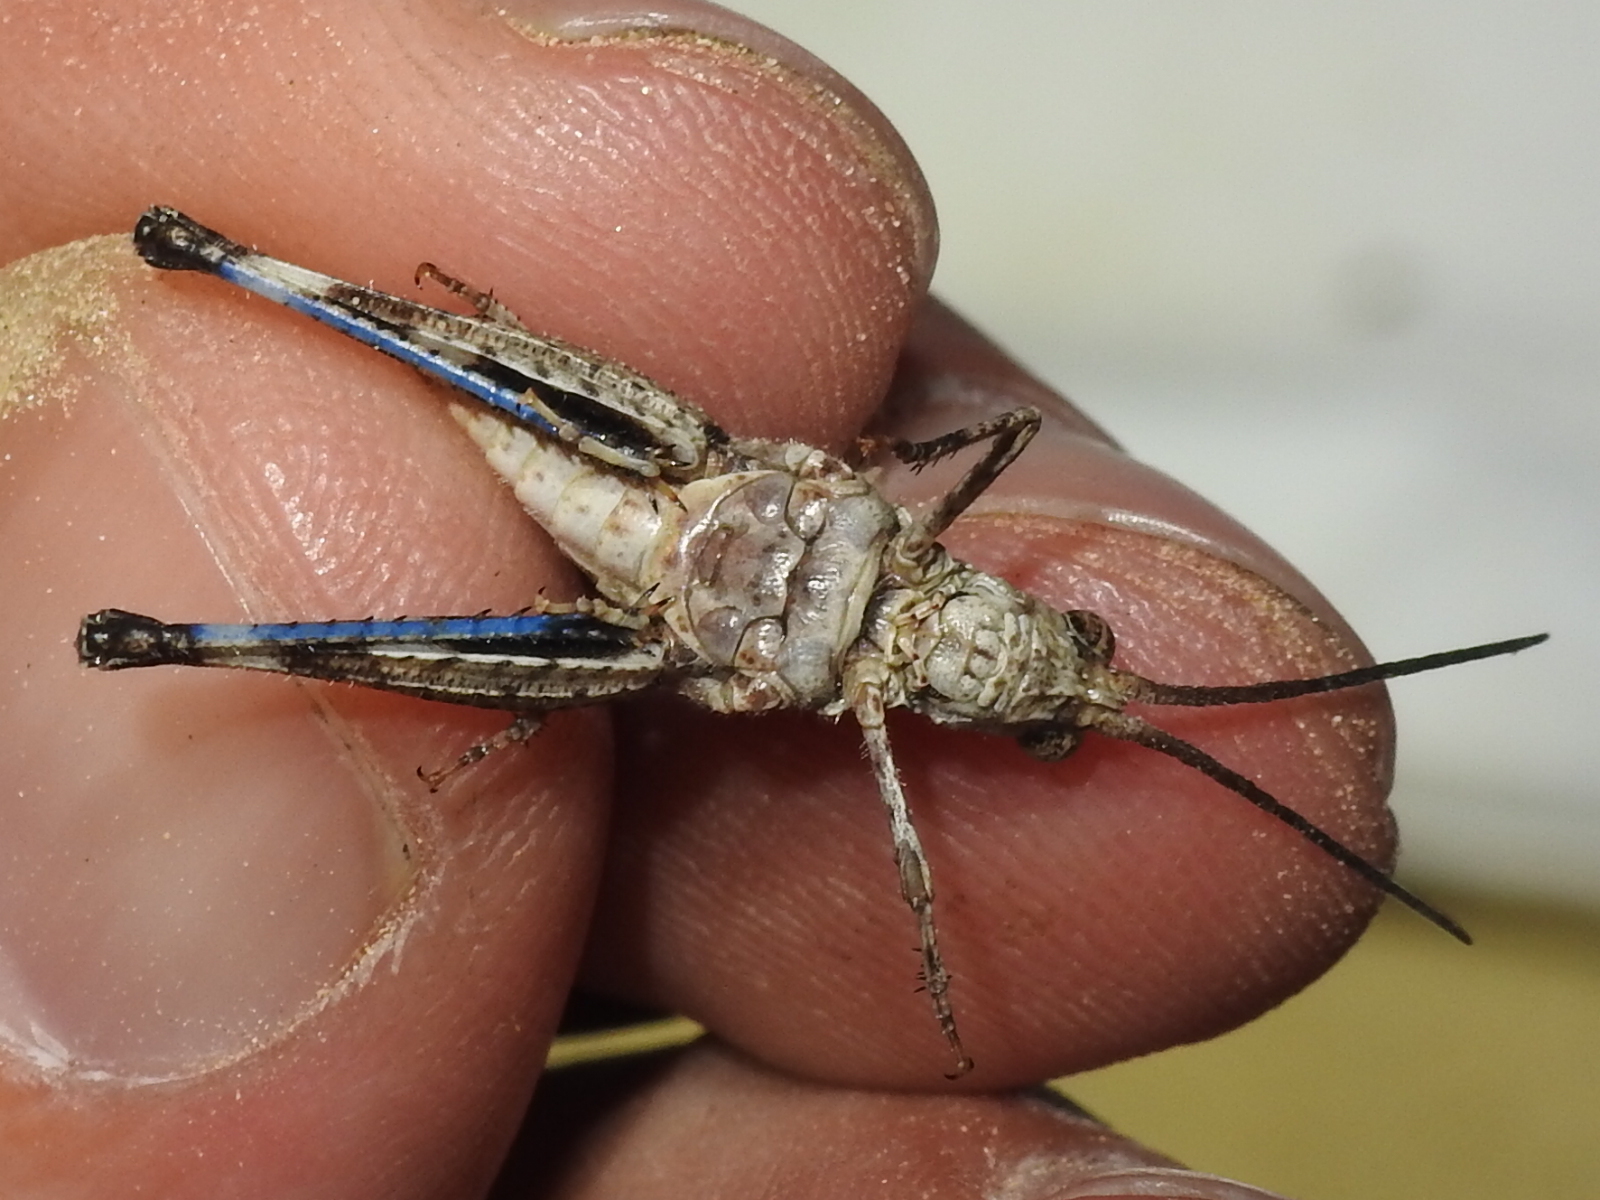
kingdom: Animalia
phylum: Arthropoda
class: Insecta
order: Orthoptera
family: Acrididae
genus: Psinidia
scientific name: Psinidia amplicornus
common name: Caudell's longhorn grasshopper
